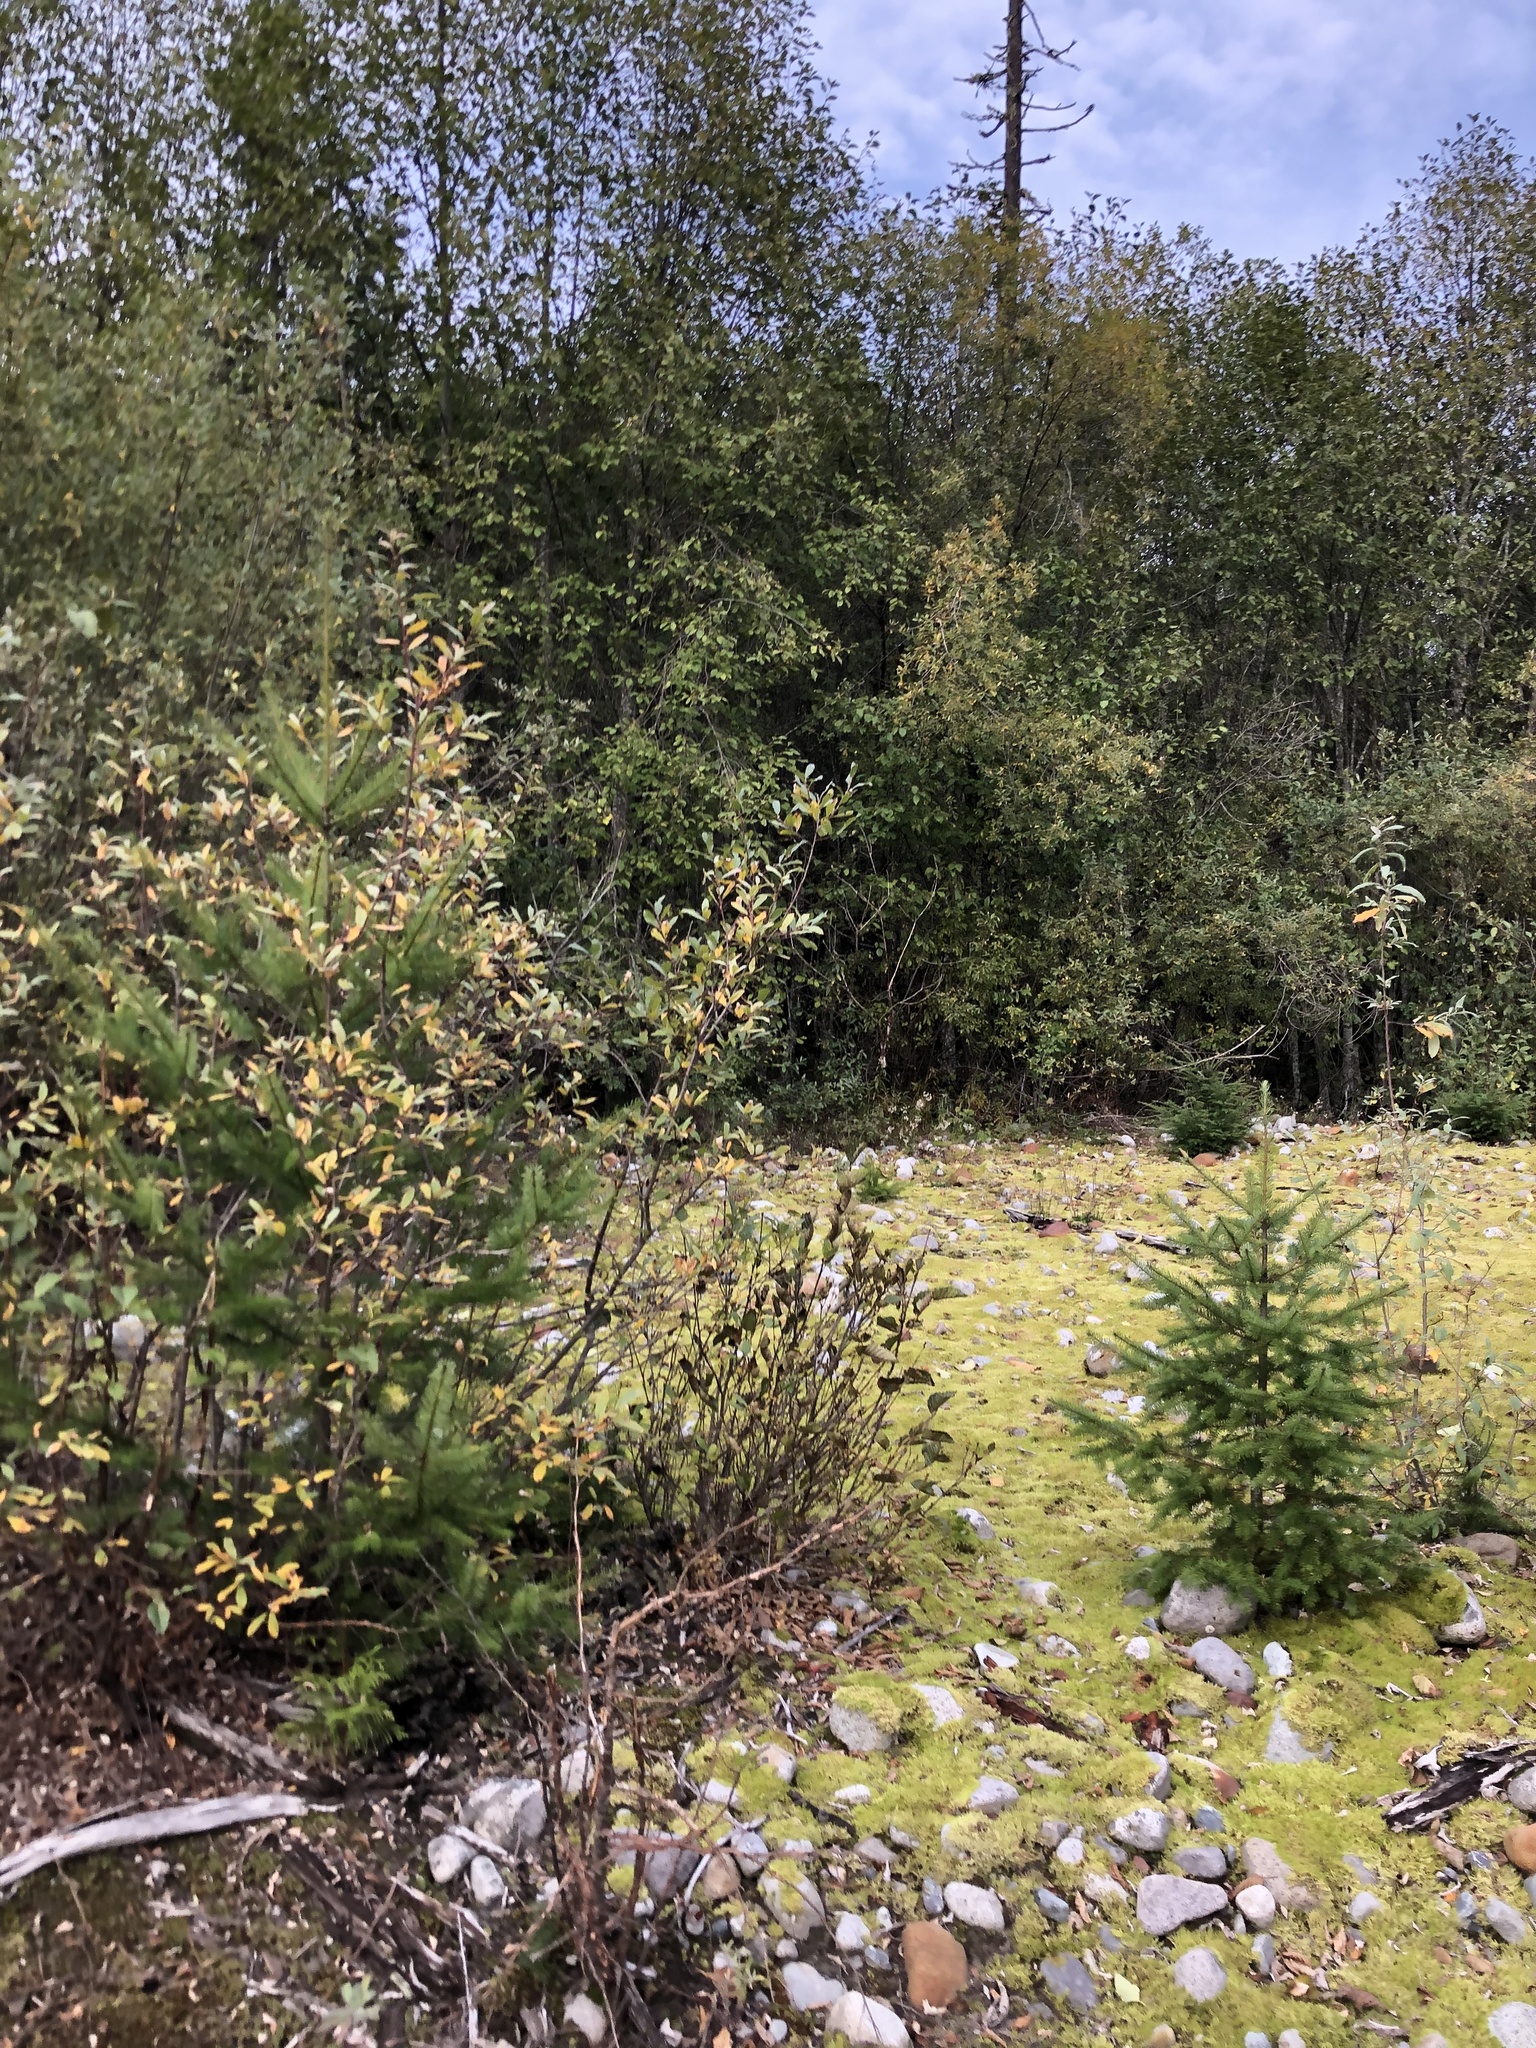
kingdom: Plantae
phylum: Tracheophyta
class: Pinopsida
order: Pinales
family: Pinaceae
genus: Pseudotsuga
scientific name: Pseudotsuga menziesii
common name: Douglas fir
